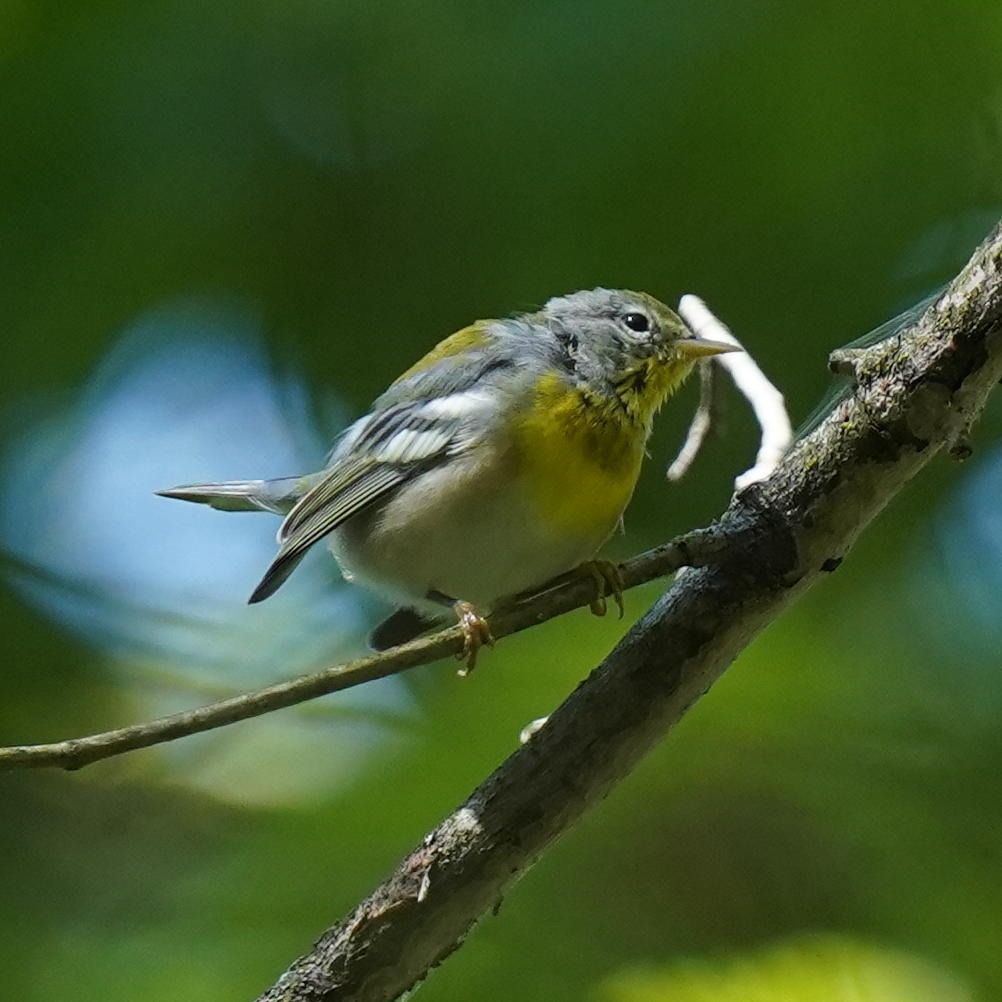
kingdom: Animalia
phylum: Chordata
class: Aves
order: Passeriformes
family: Parulidae
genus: Setophaga
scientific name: Setophaga americana
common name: Northern parula
